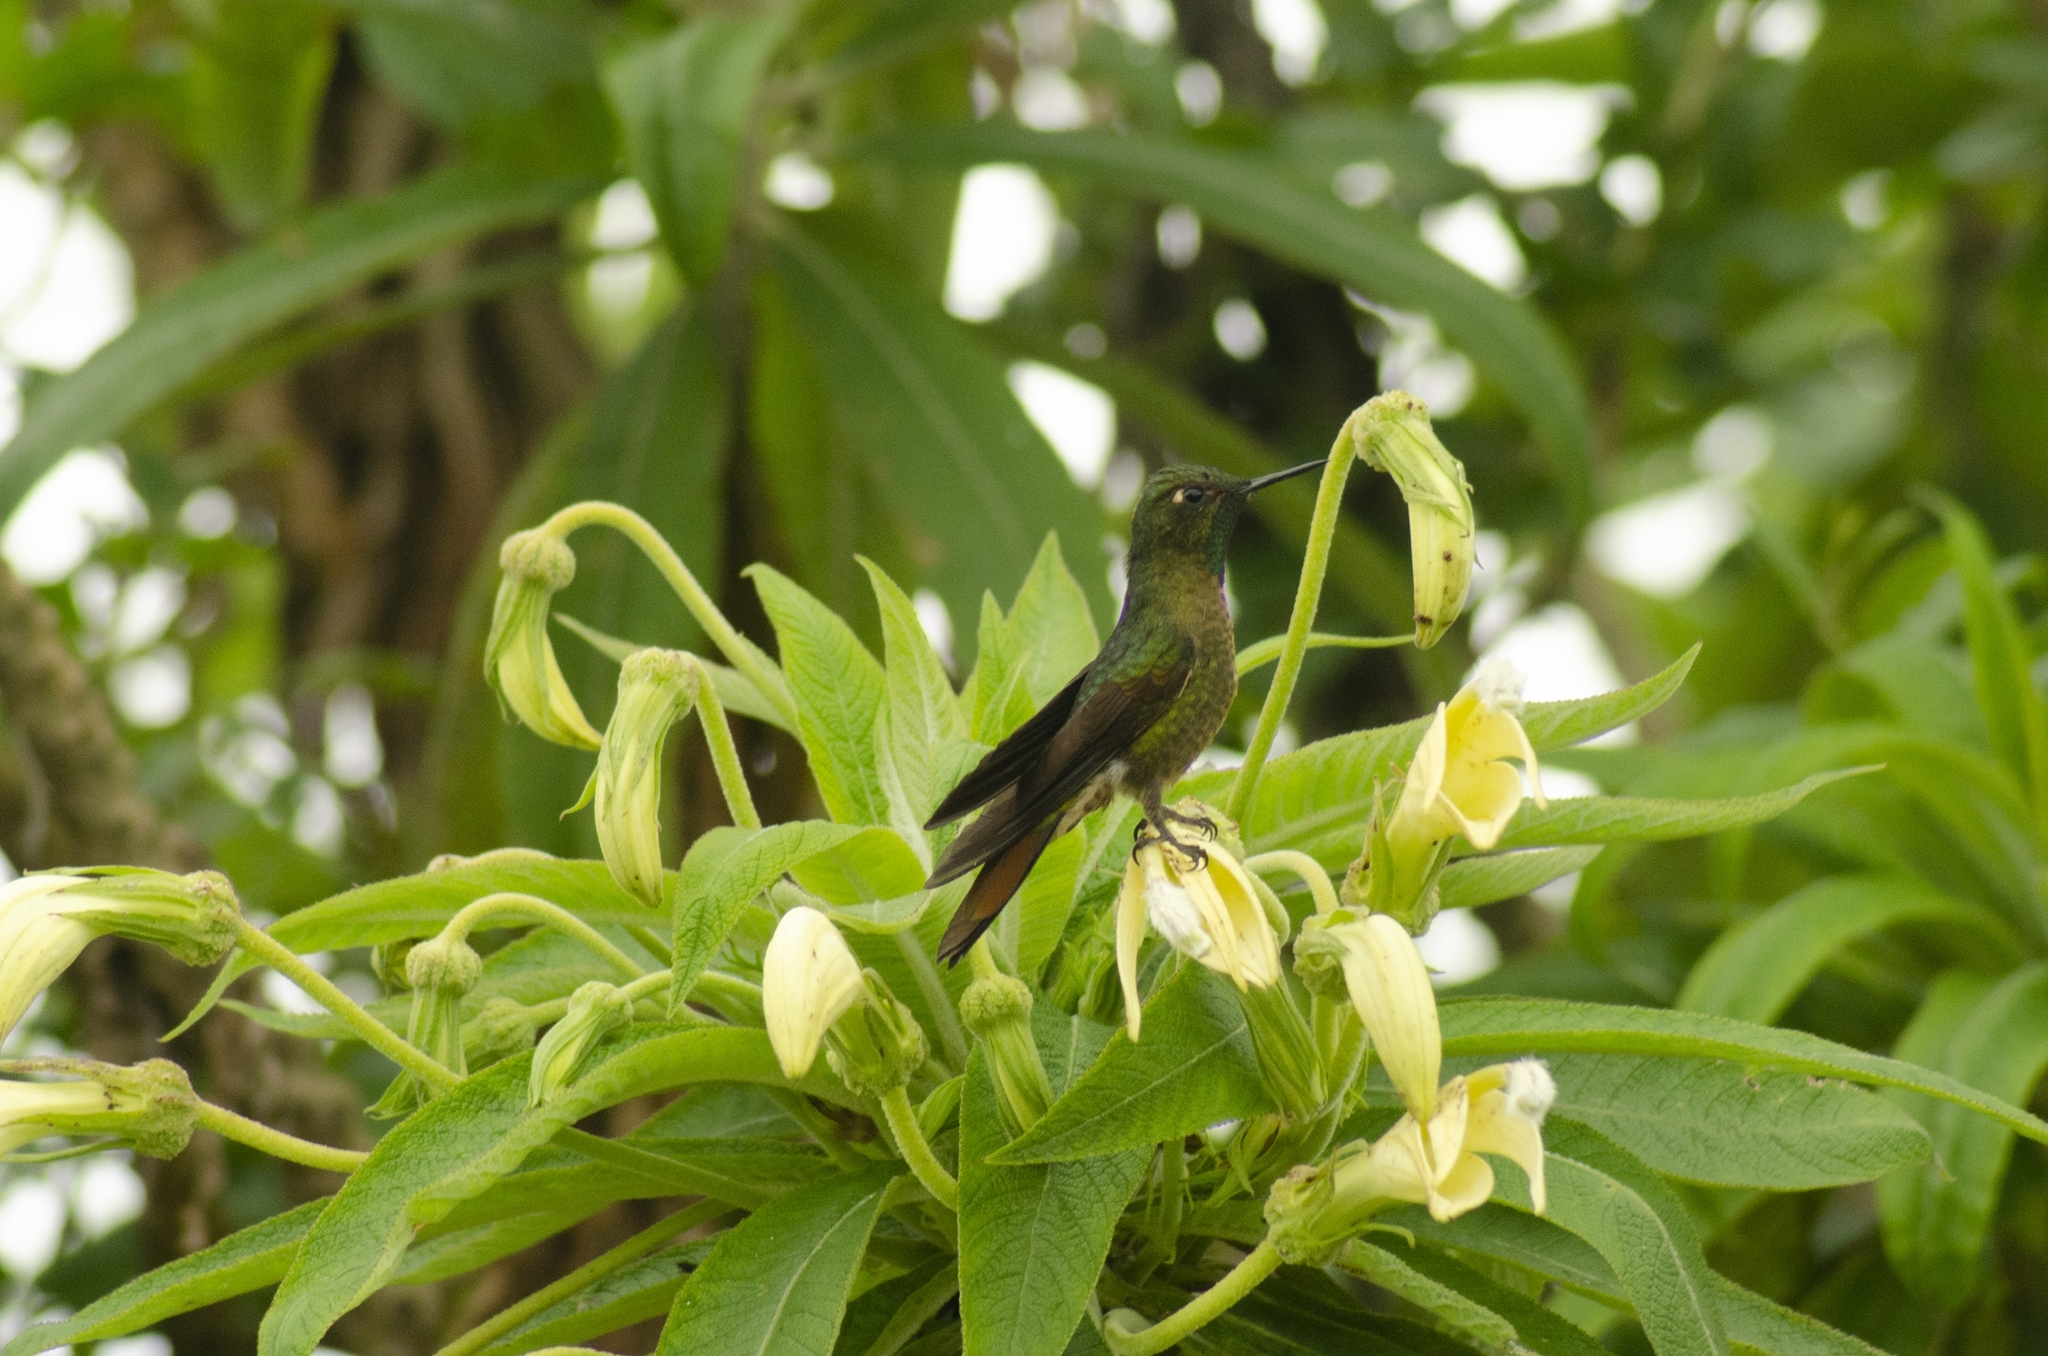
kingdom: Animalia
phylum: Chordata
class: Aves
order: Apodiformes
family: Trochilidae
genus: Metallura
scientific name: Metallura tyrianthina
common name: Tyrian metaltail
